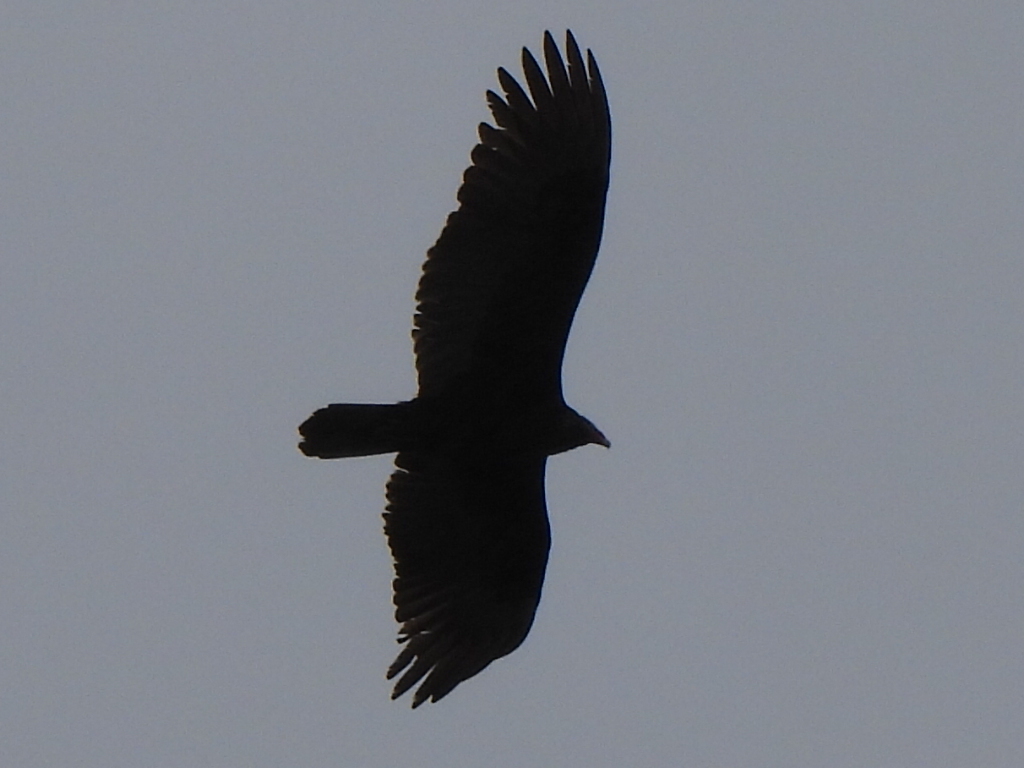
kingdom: Animalia
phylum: Chordata
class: Aves
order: Accipitriformes
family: Cathartidae
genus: Cathartes
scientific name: Cathartes aura
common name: Turkey vulture
